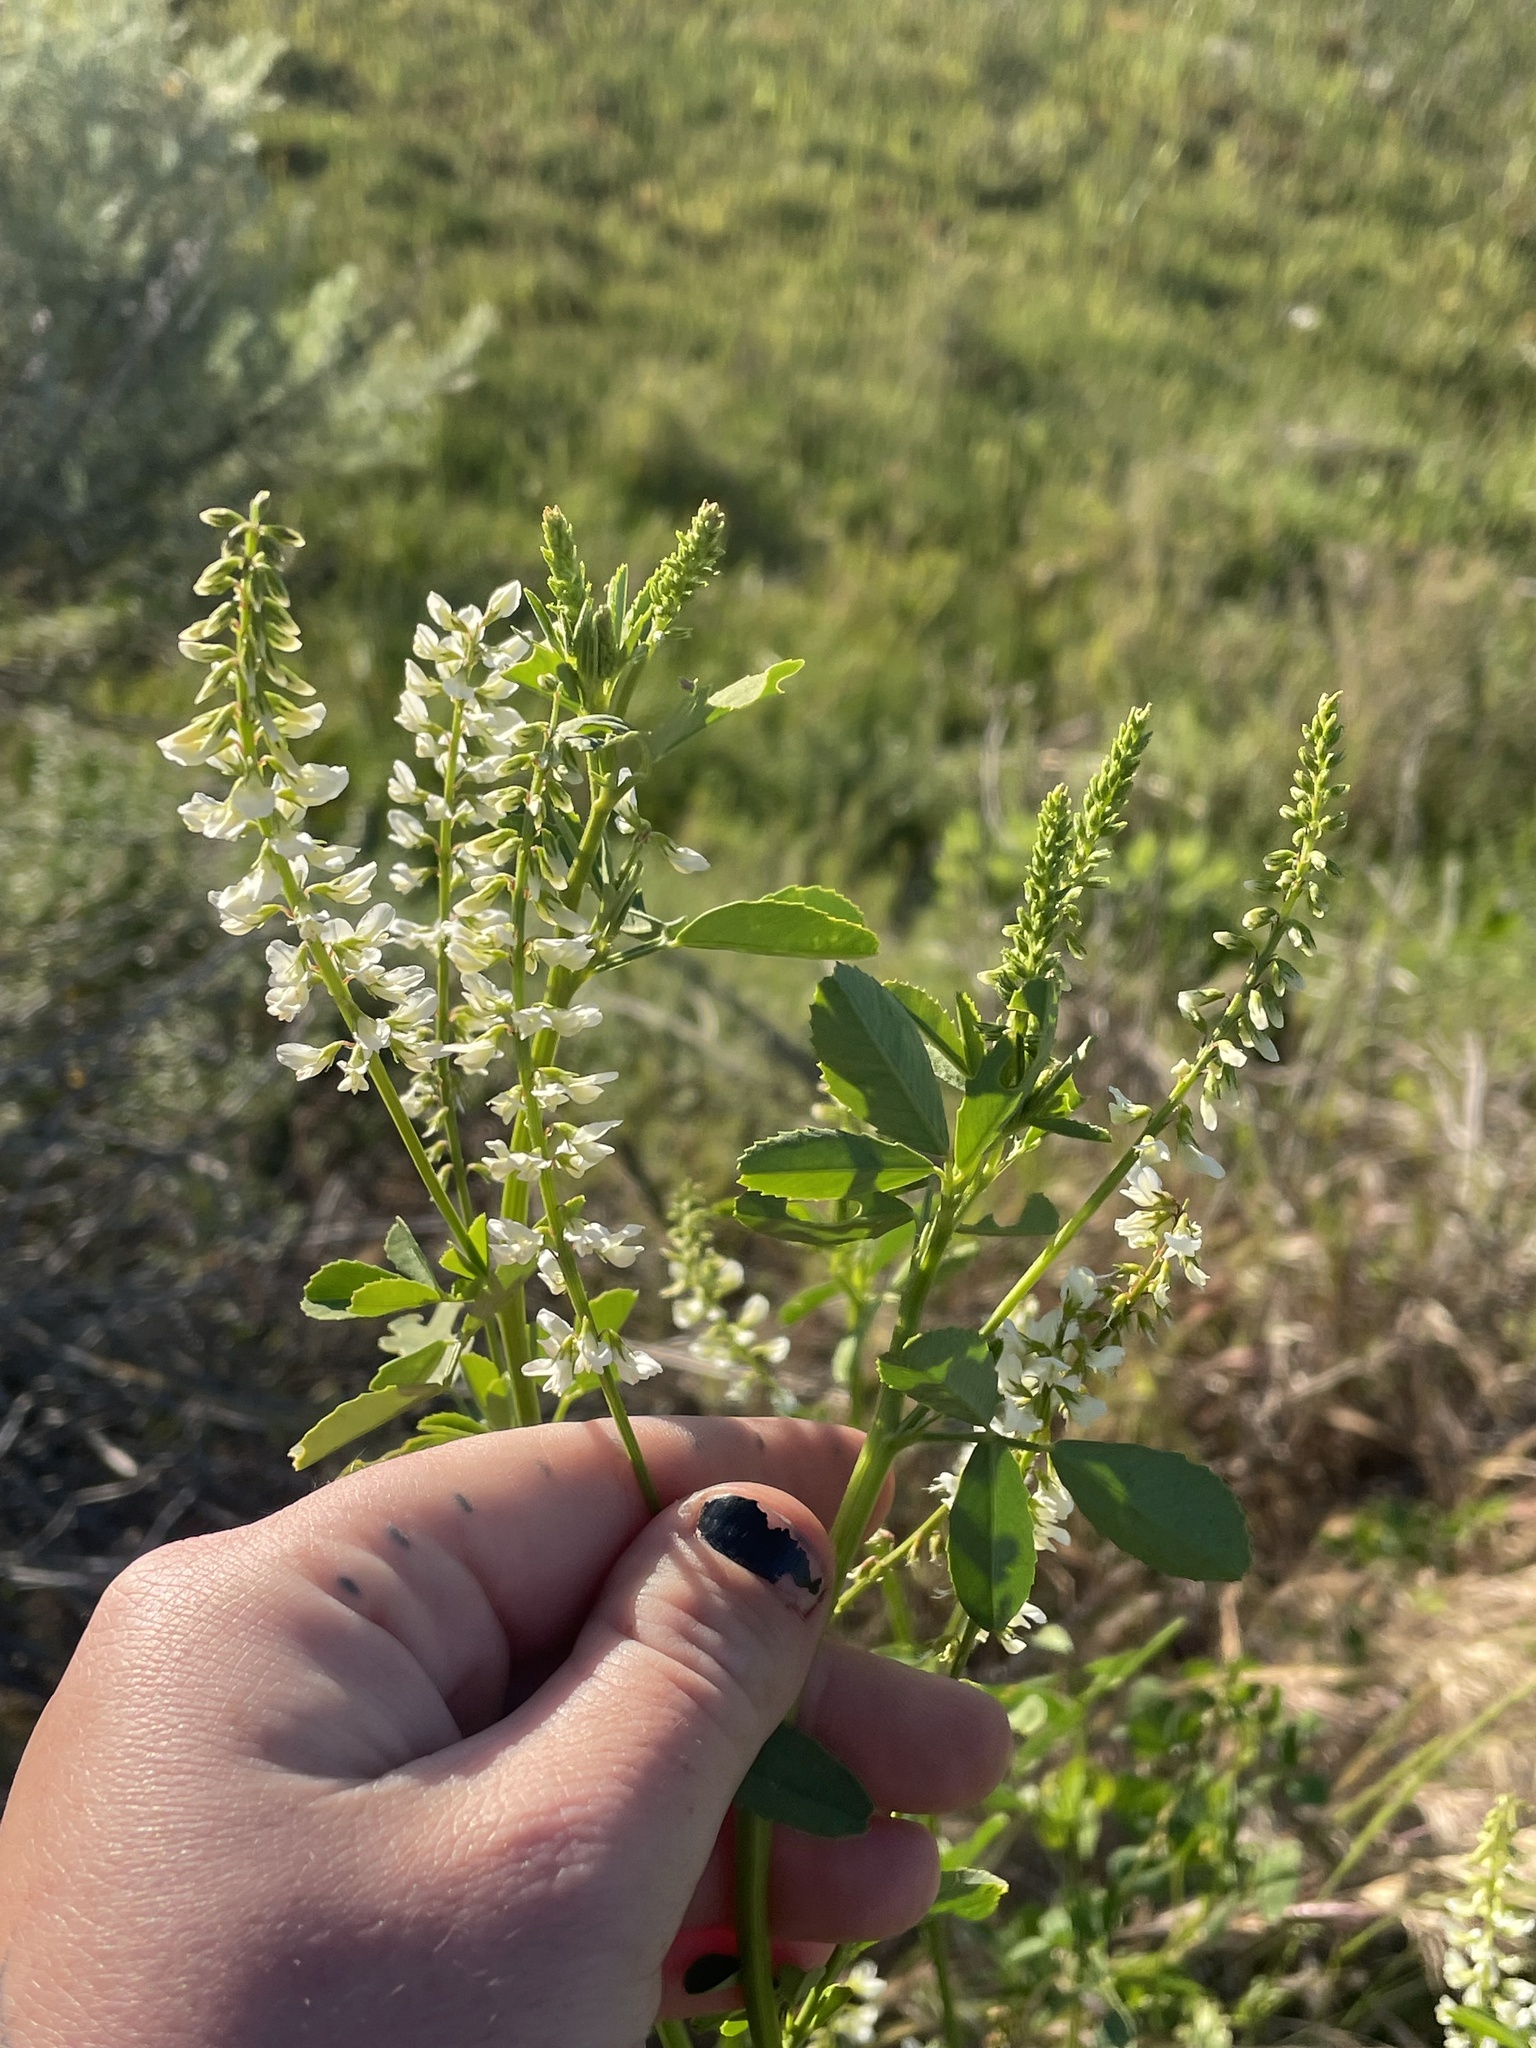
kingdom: Plantae
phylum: Tracheophyta
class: Magnoliopsida
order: Fabales
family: Fabaceae
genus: Melilotus
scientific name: Melilotus albus
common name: White melilot
